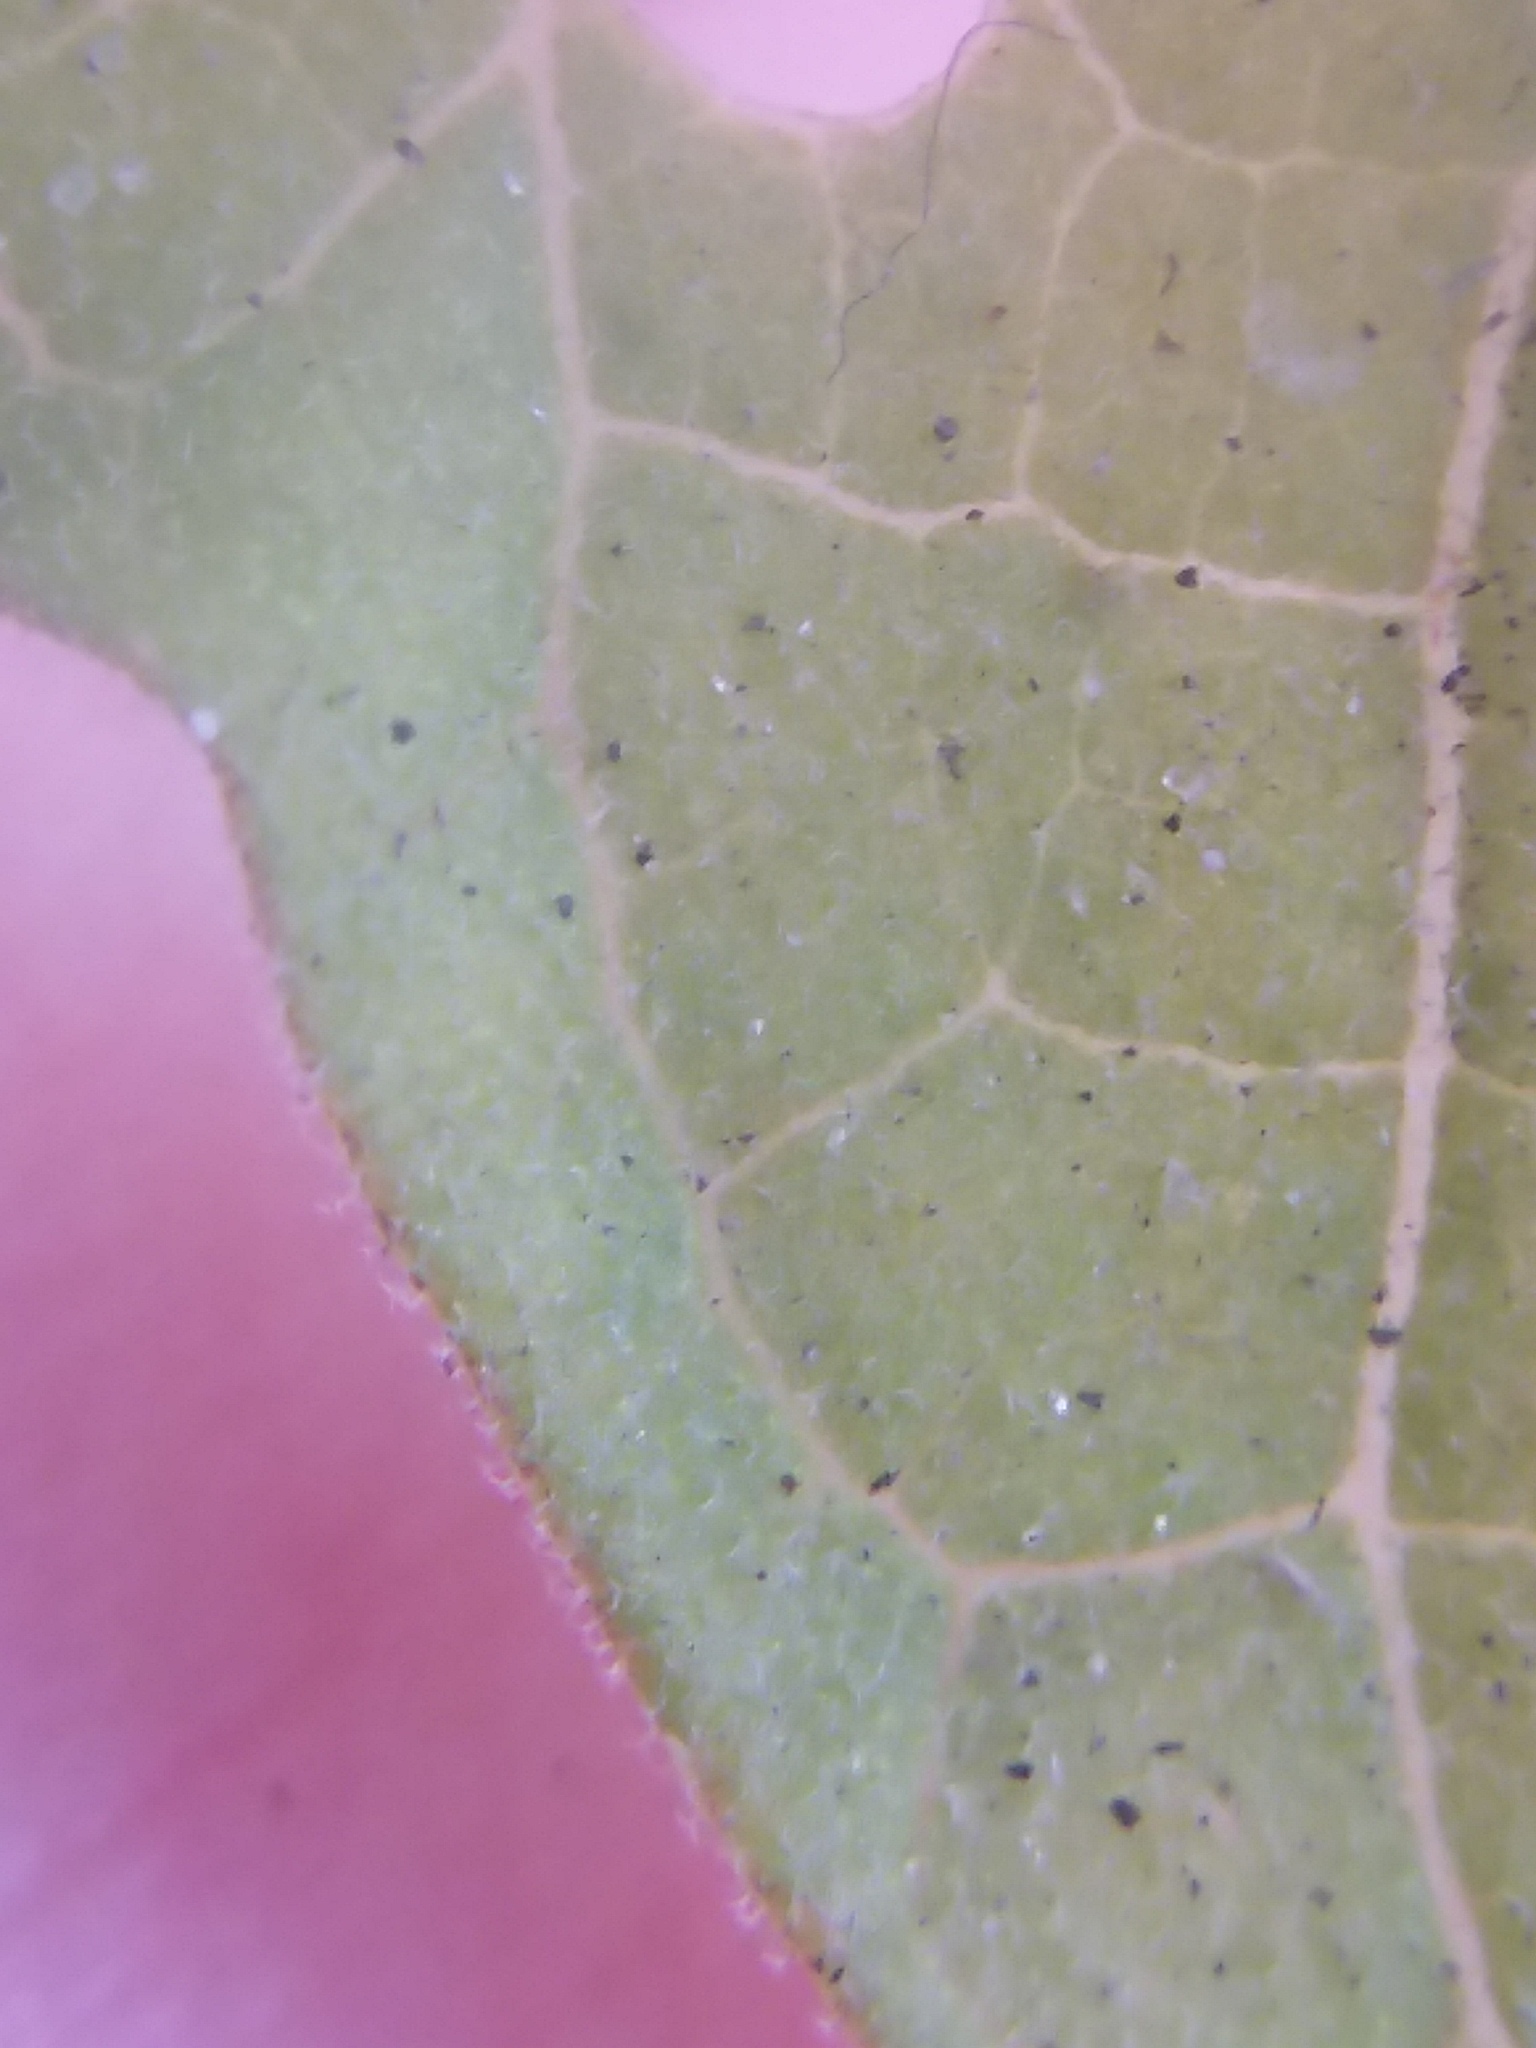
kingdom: Plantae
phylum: Tracheophyta
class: Magnoliopsida
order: Solanales
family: Solanaceae
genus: Physalis
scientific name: Physalis walteri
